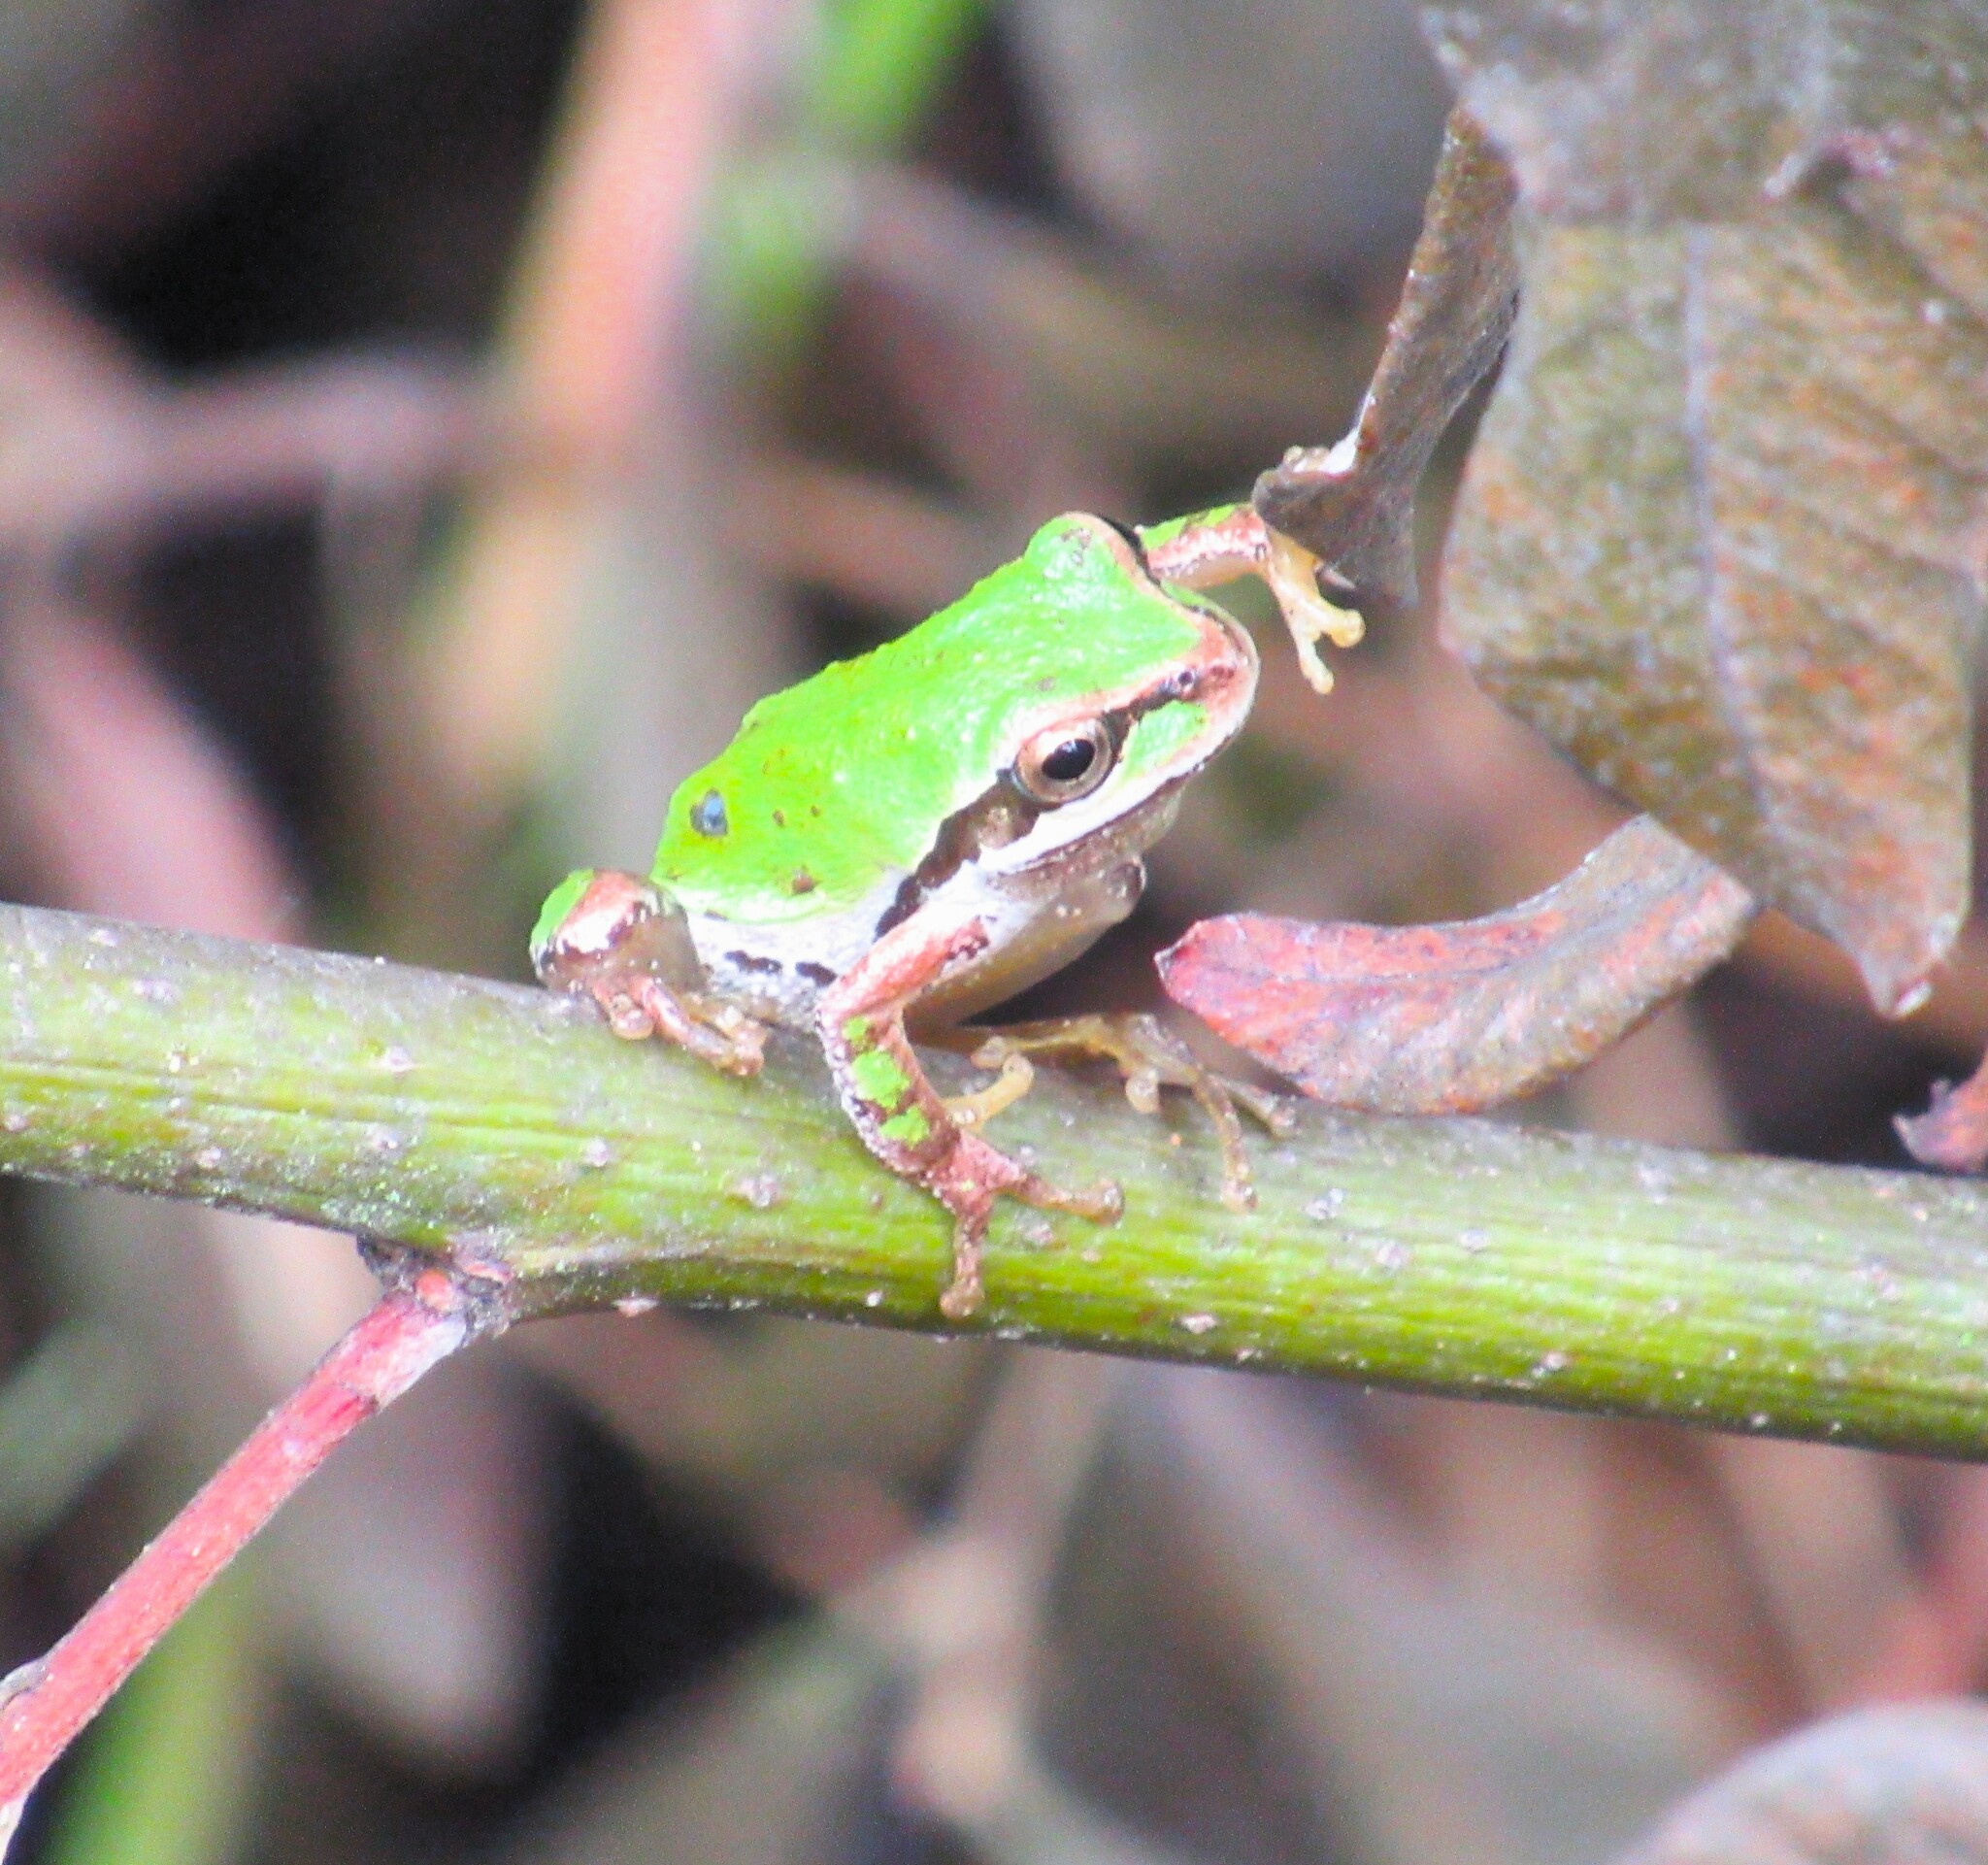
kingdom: Animalia
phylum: Chordata
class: Amphibia
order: Anura
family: Hylidae
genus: Pseudacris
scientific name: Pseudacris regilla
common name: Pacific chorus frog
